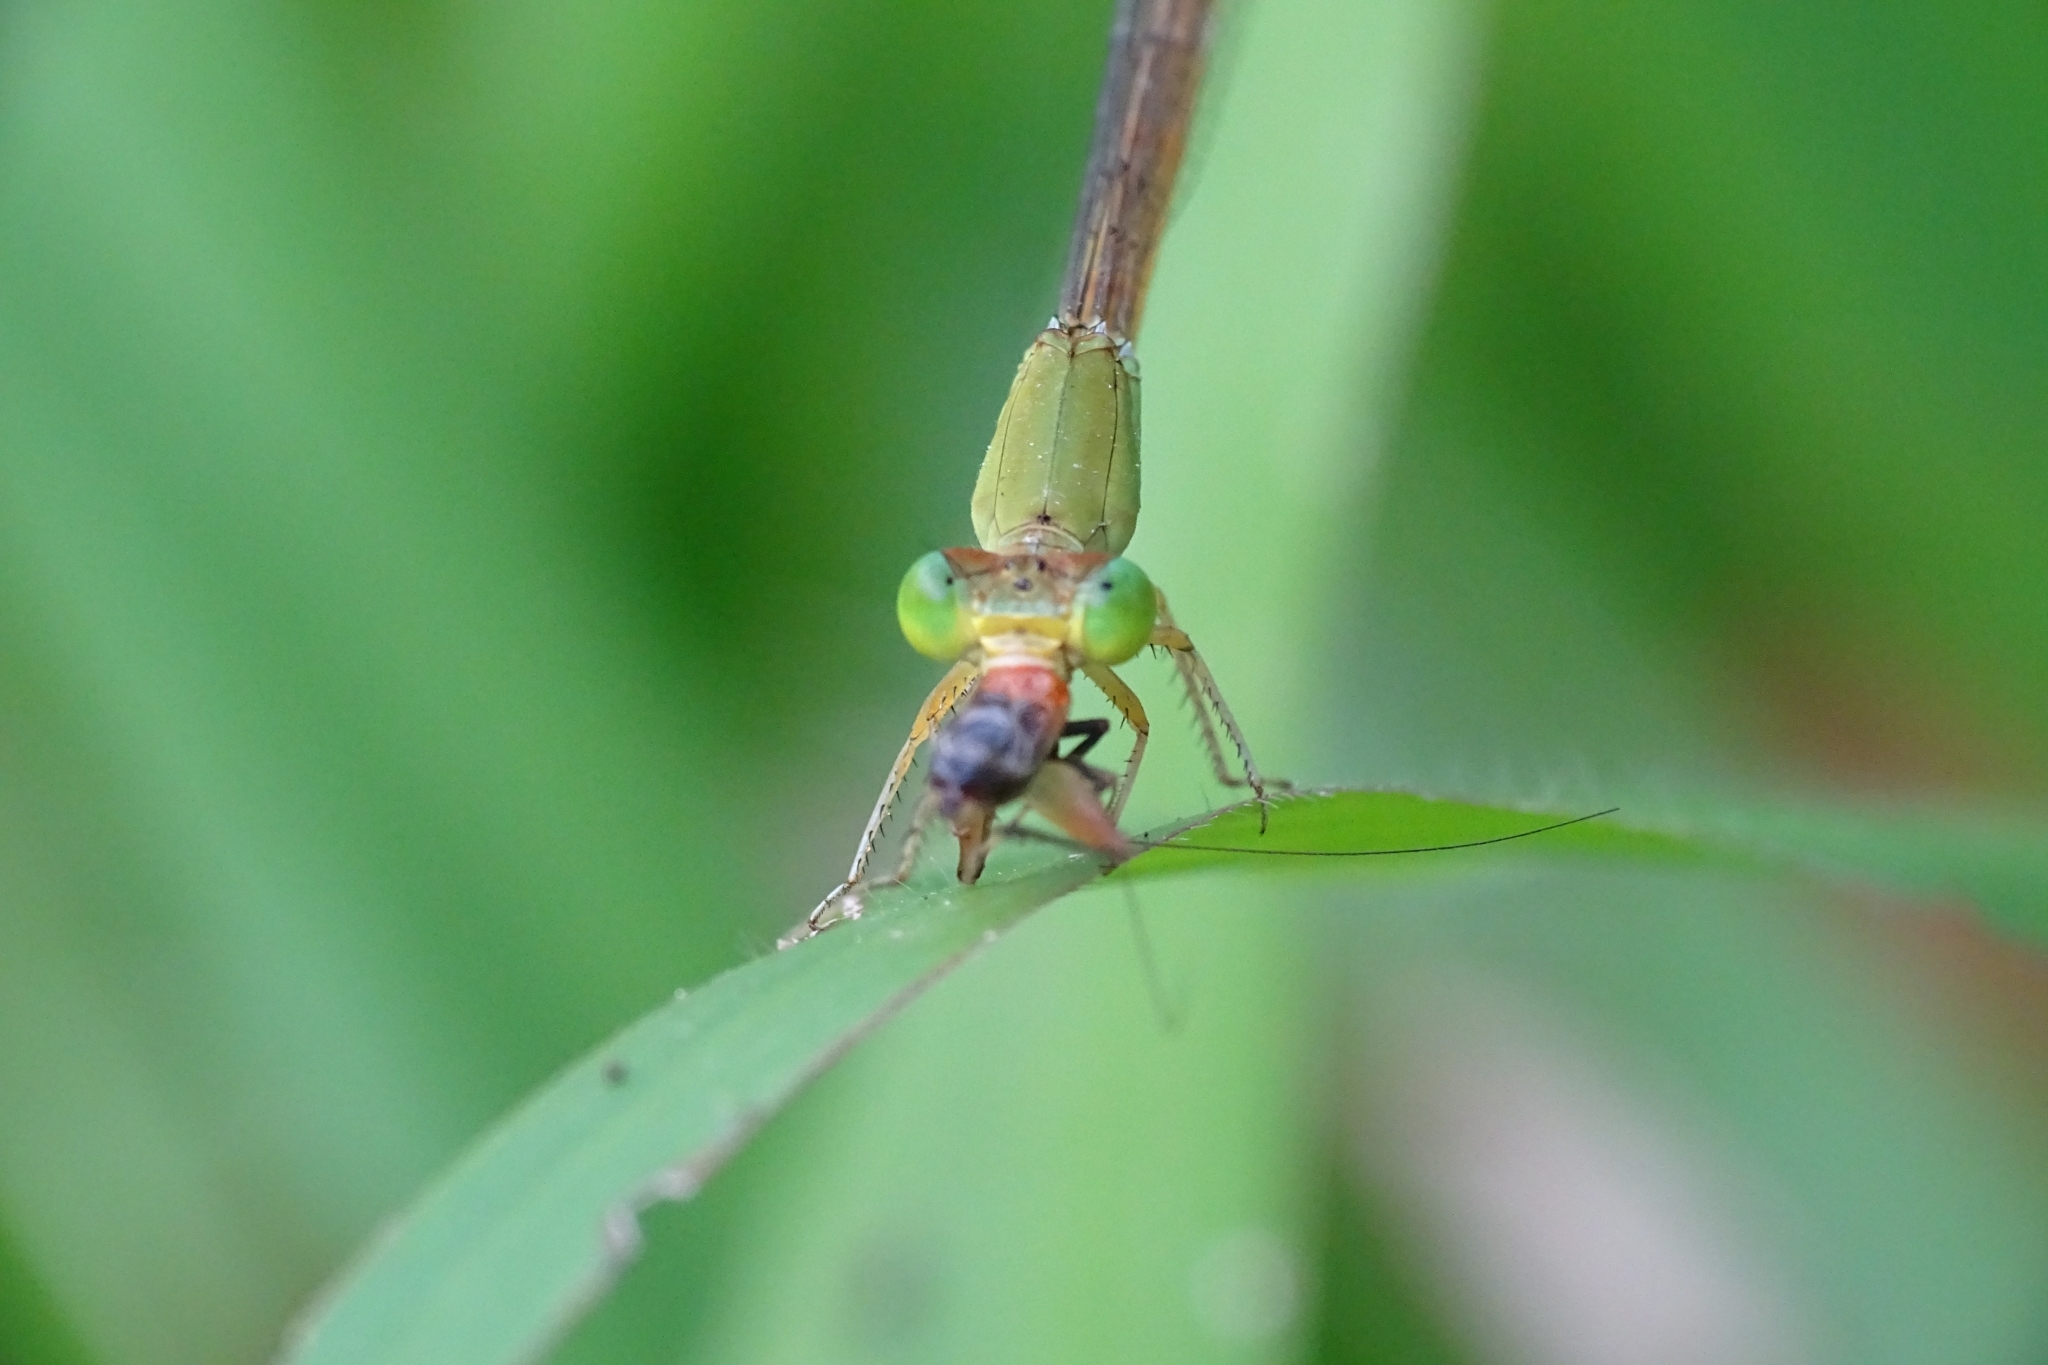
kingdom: Animalia
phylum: Arthropoda
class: Insecta
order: Odonata
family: Coenagrionidae
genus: Ceriagrion
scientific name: Ceriagrion coromandelianum
